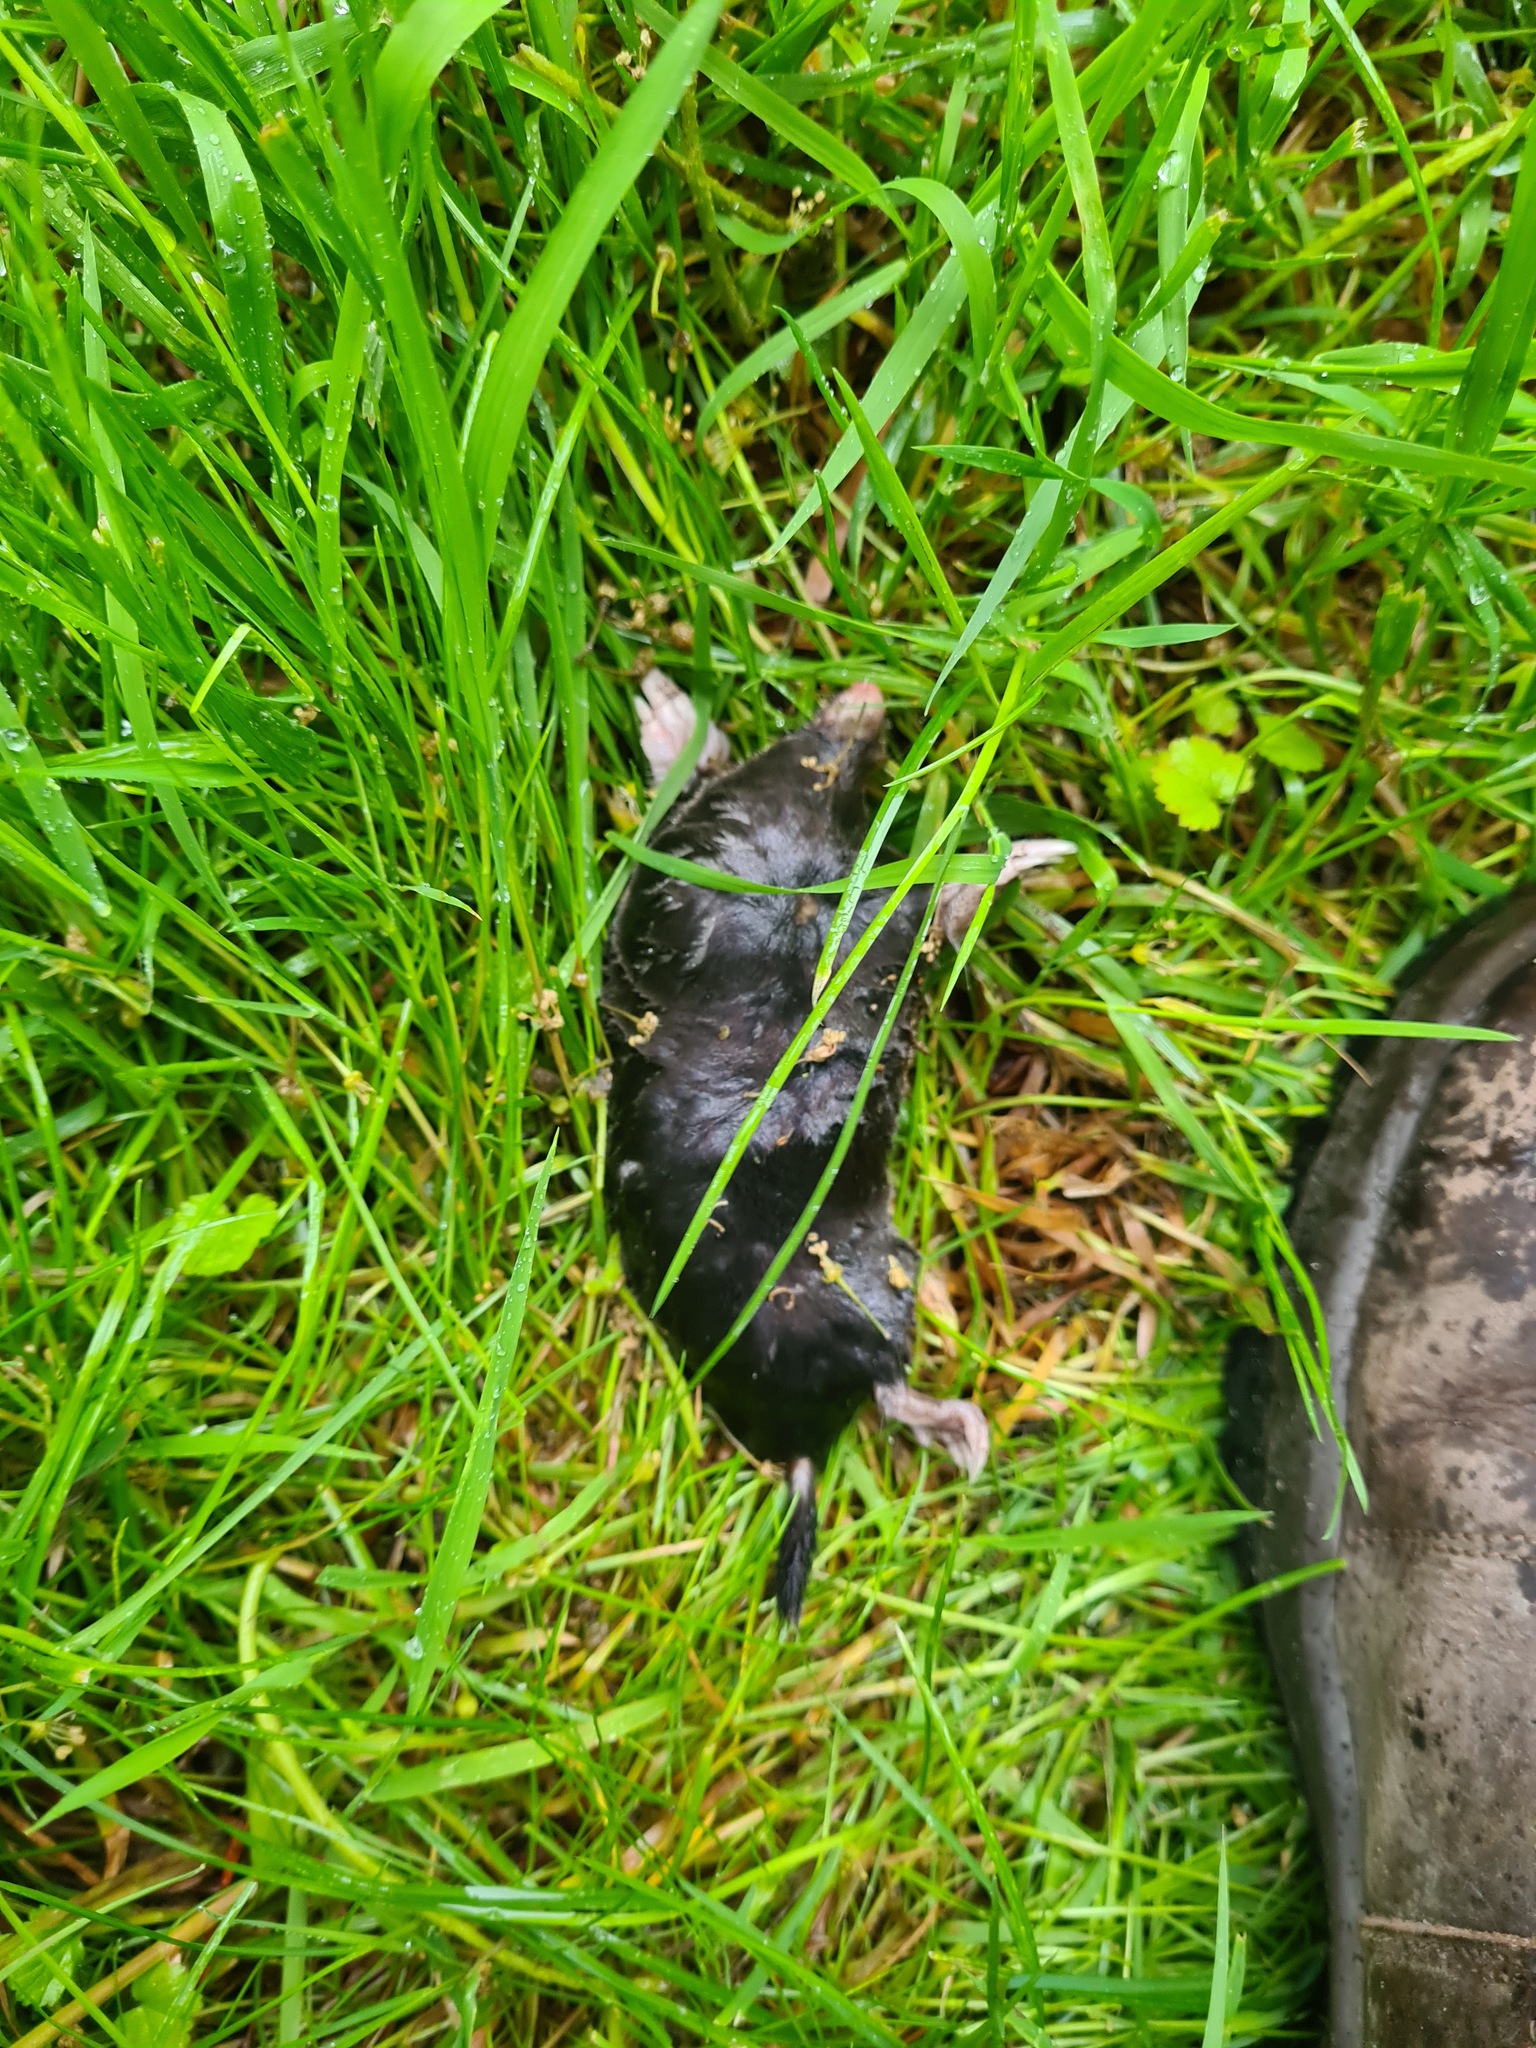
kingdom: Animalia
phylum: Chordata
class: Mammalia
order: Soricomorpha
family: Talpidae
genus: Talpa
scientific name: Talpa europaea
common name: European mole
